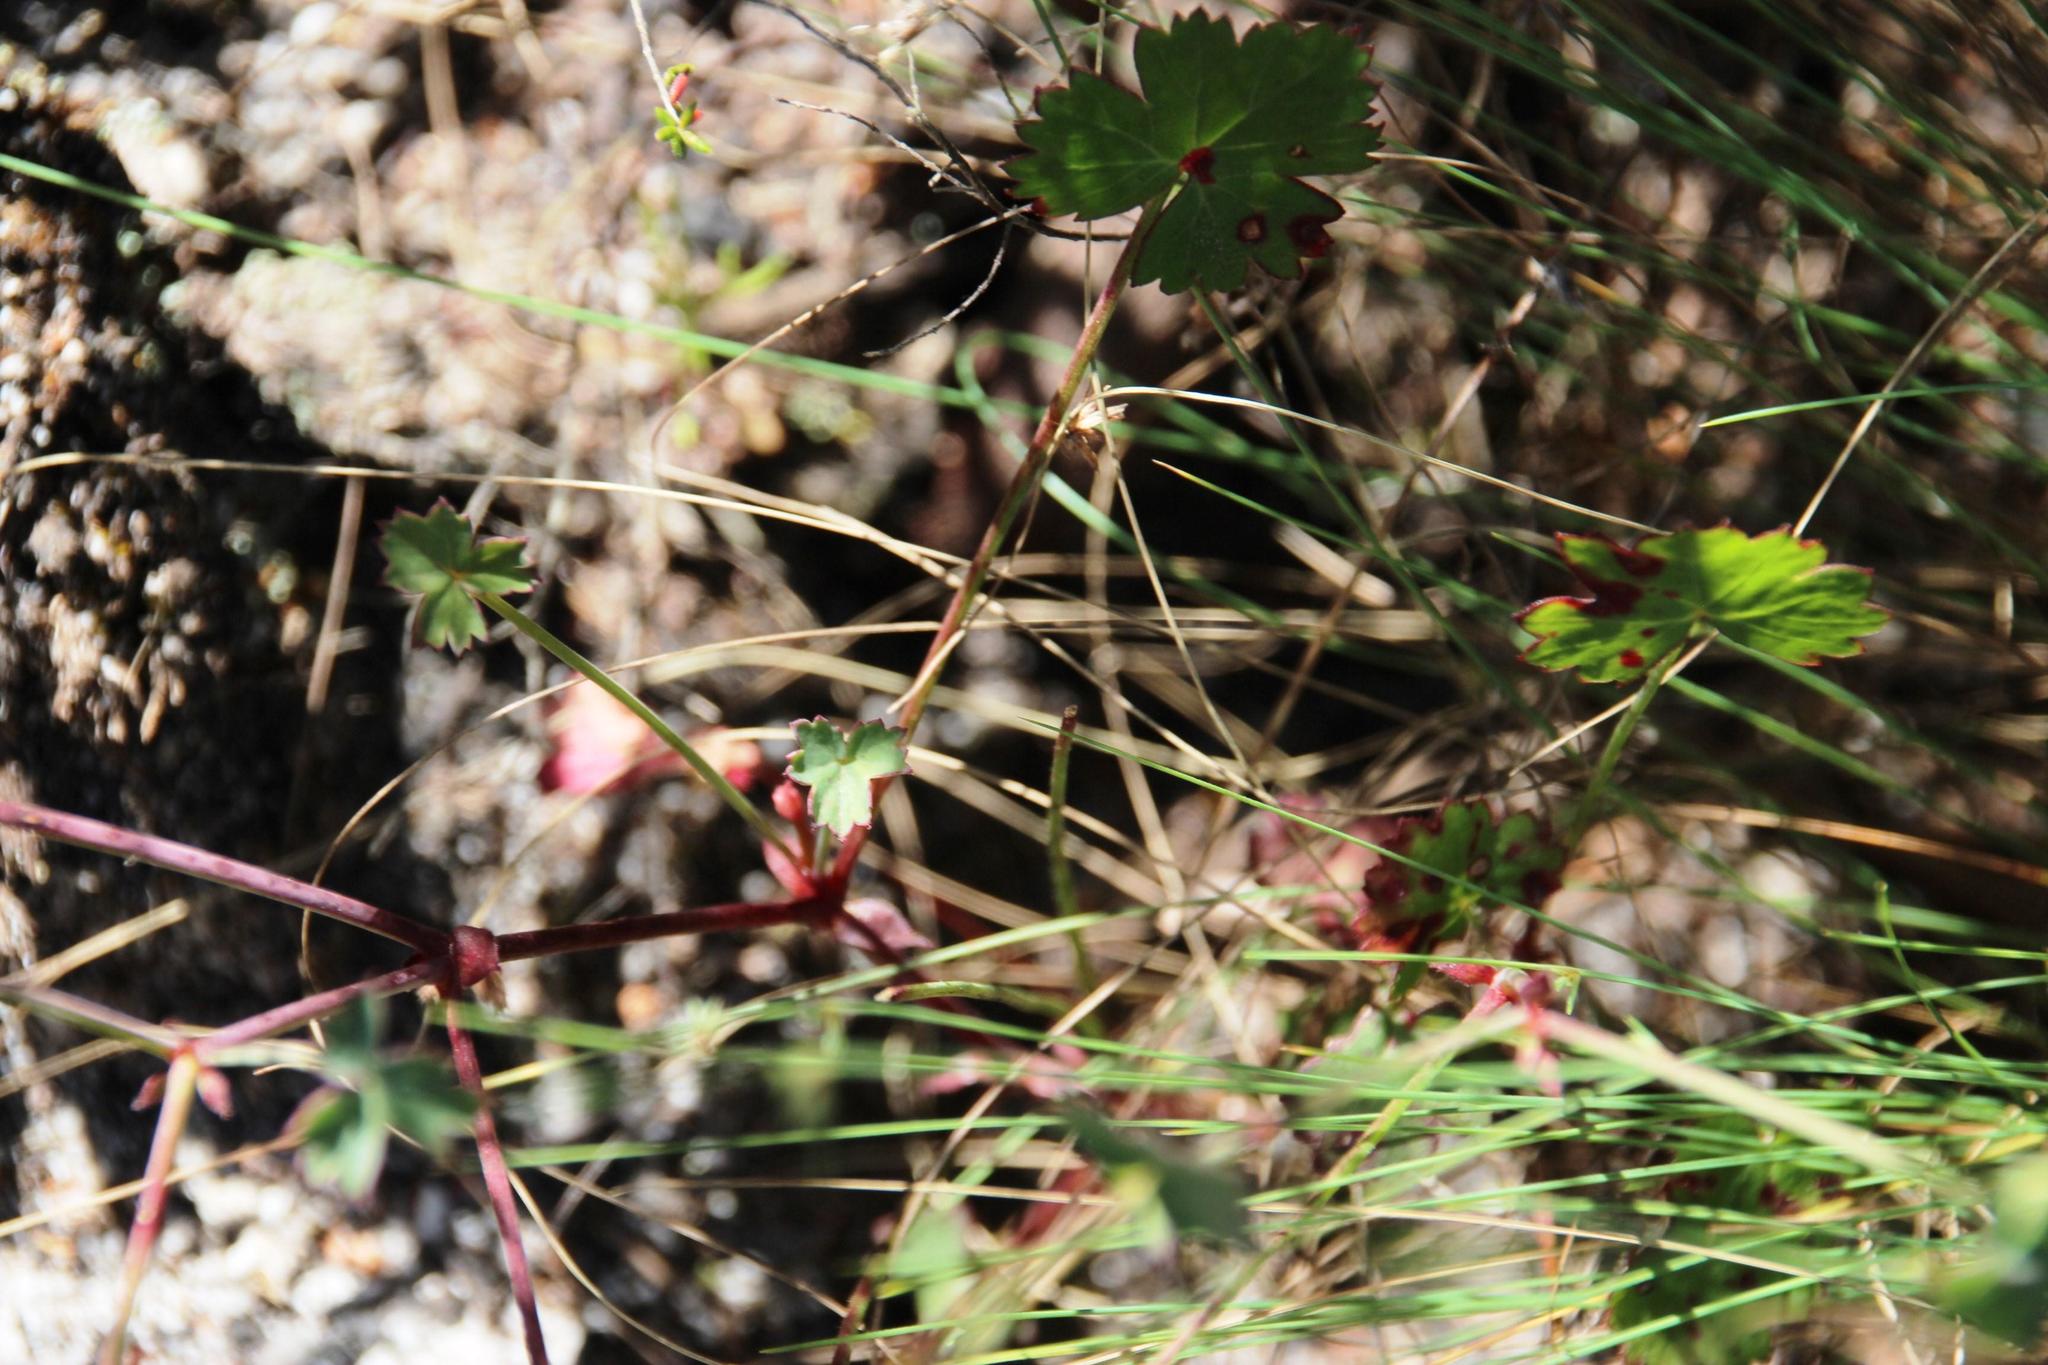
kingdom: Plantae
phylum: Tracheophyta
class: Magnoliopsida
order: Geraniales
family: Geraniaceae
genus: Pelargonium
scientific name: Pelargonium patulum
